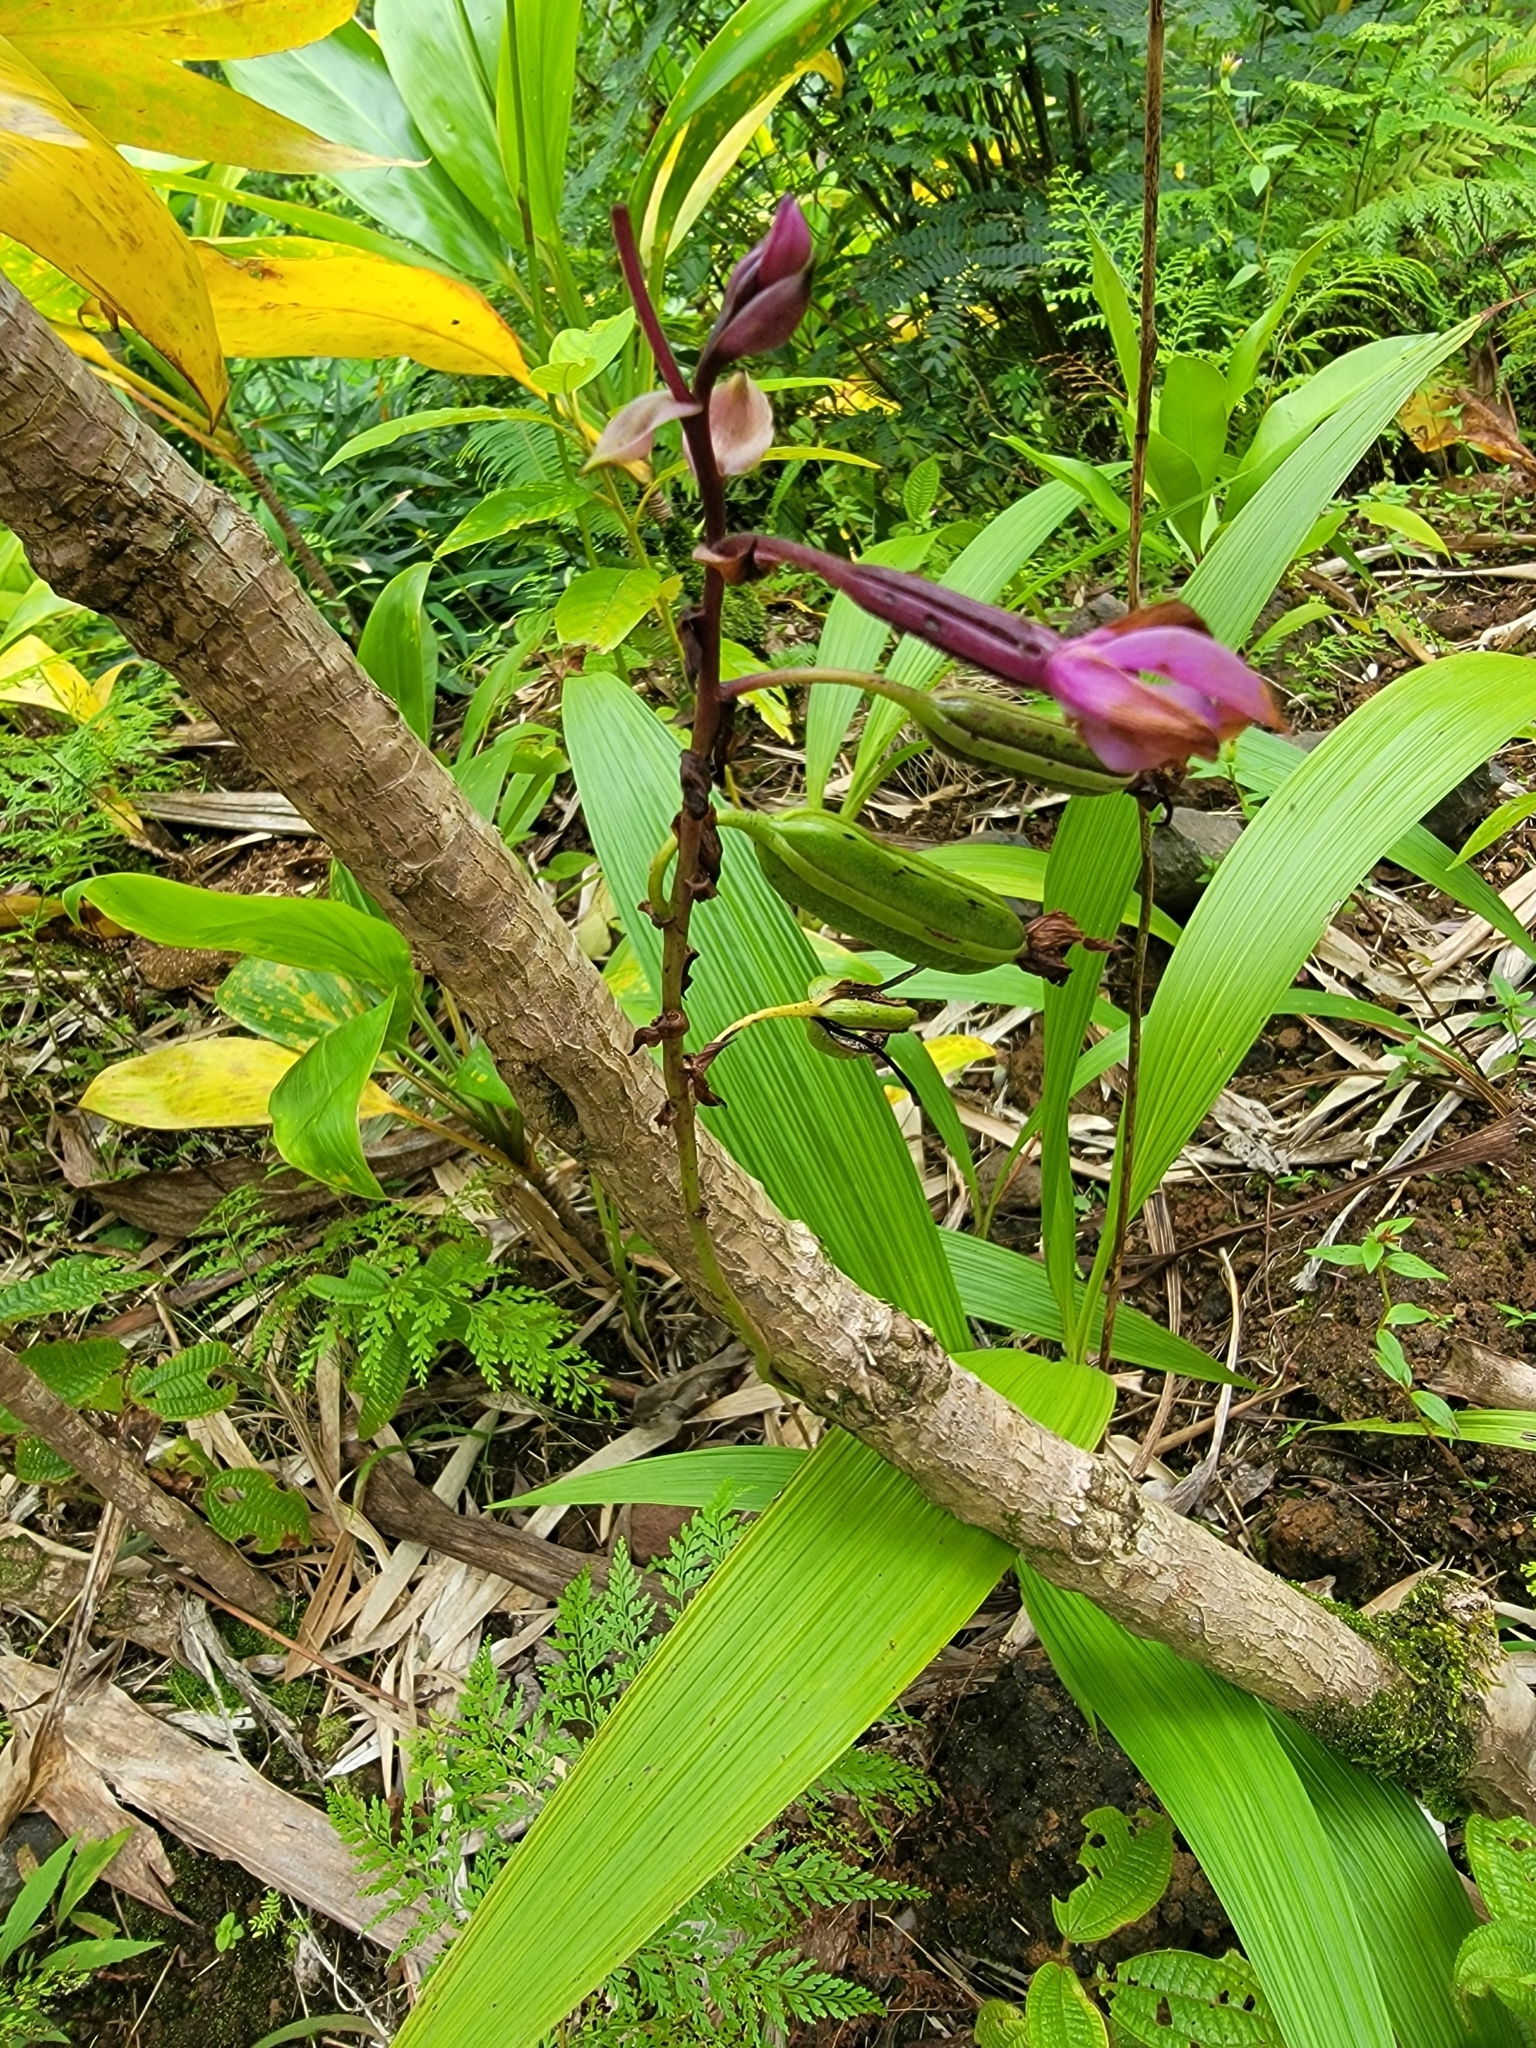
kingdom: Plantae
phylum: Tracheophyta
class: Liliopsida
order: Asparagales
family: Orchidaceae
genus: Spathoglottis
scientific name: Spathoglottis plicata
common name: Philippine ground orchid
